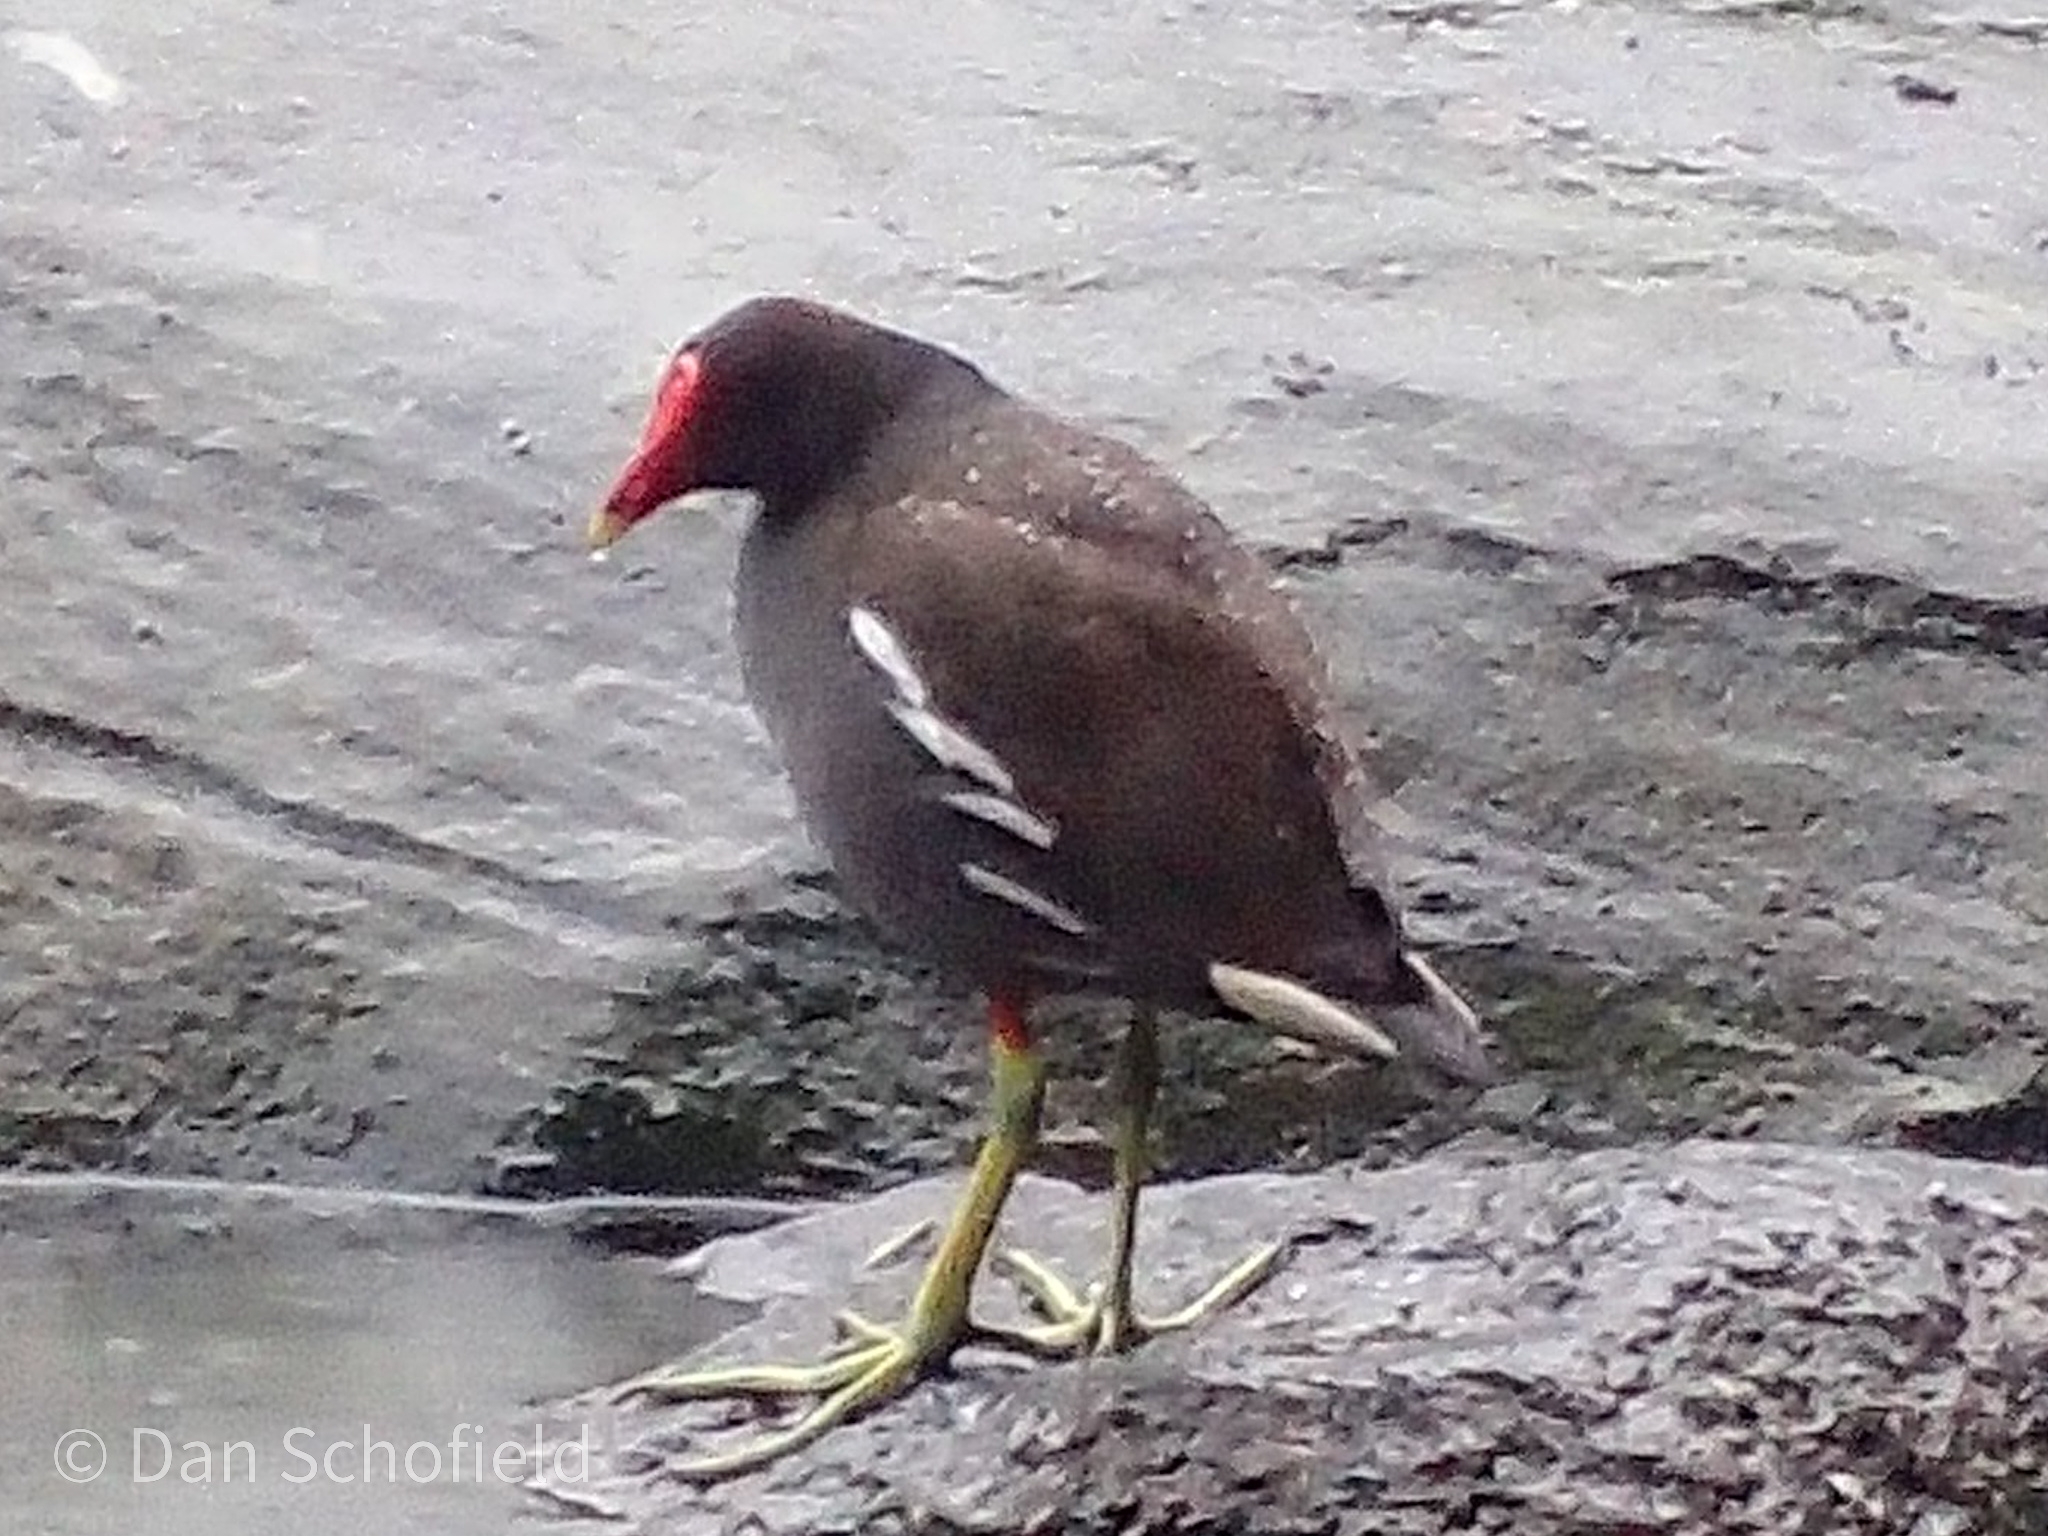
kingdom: Animalia
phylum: Chordata
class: Aves
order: Gruiformes
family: Rallidae
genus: Gallinula
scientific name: Gallinula chloropus
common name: Common moorhen
